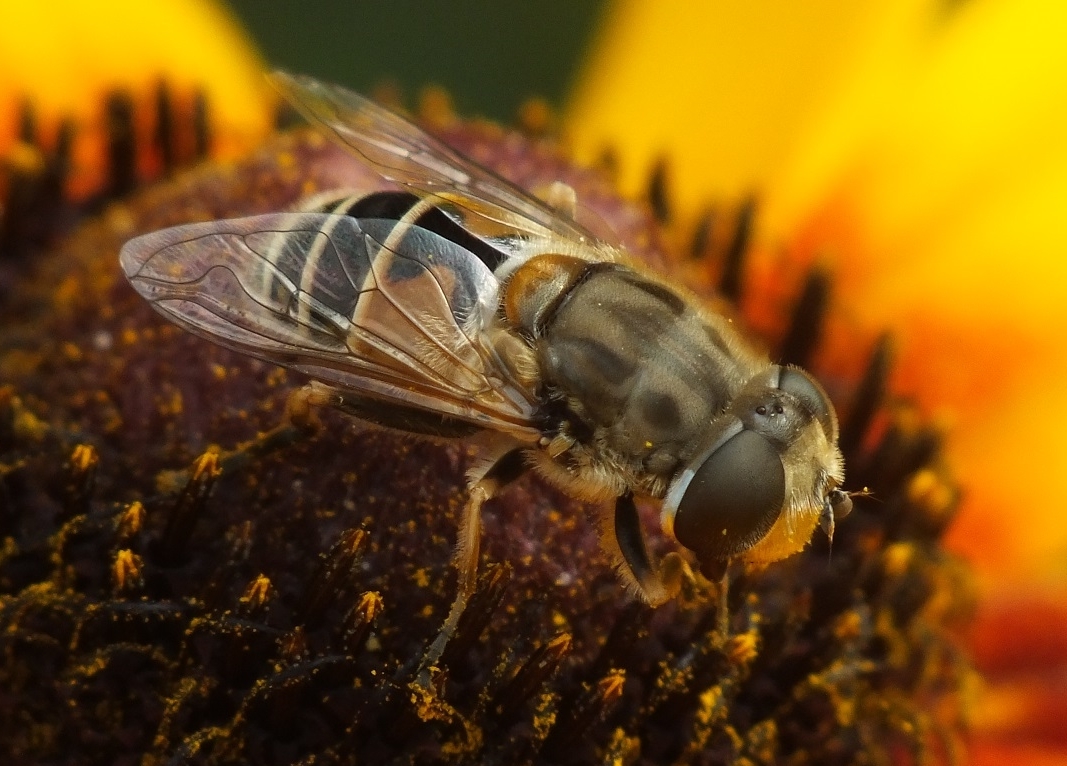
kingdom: Animalia
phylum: Arthropoda
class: Insecta
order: Diptera
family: Syrphidae
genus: Eristalis
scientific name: Eristalis arbustorum
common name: Hover fly
